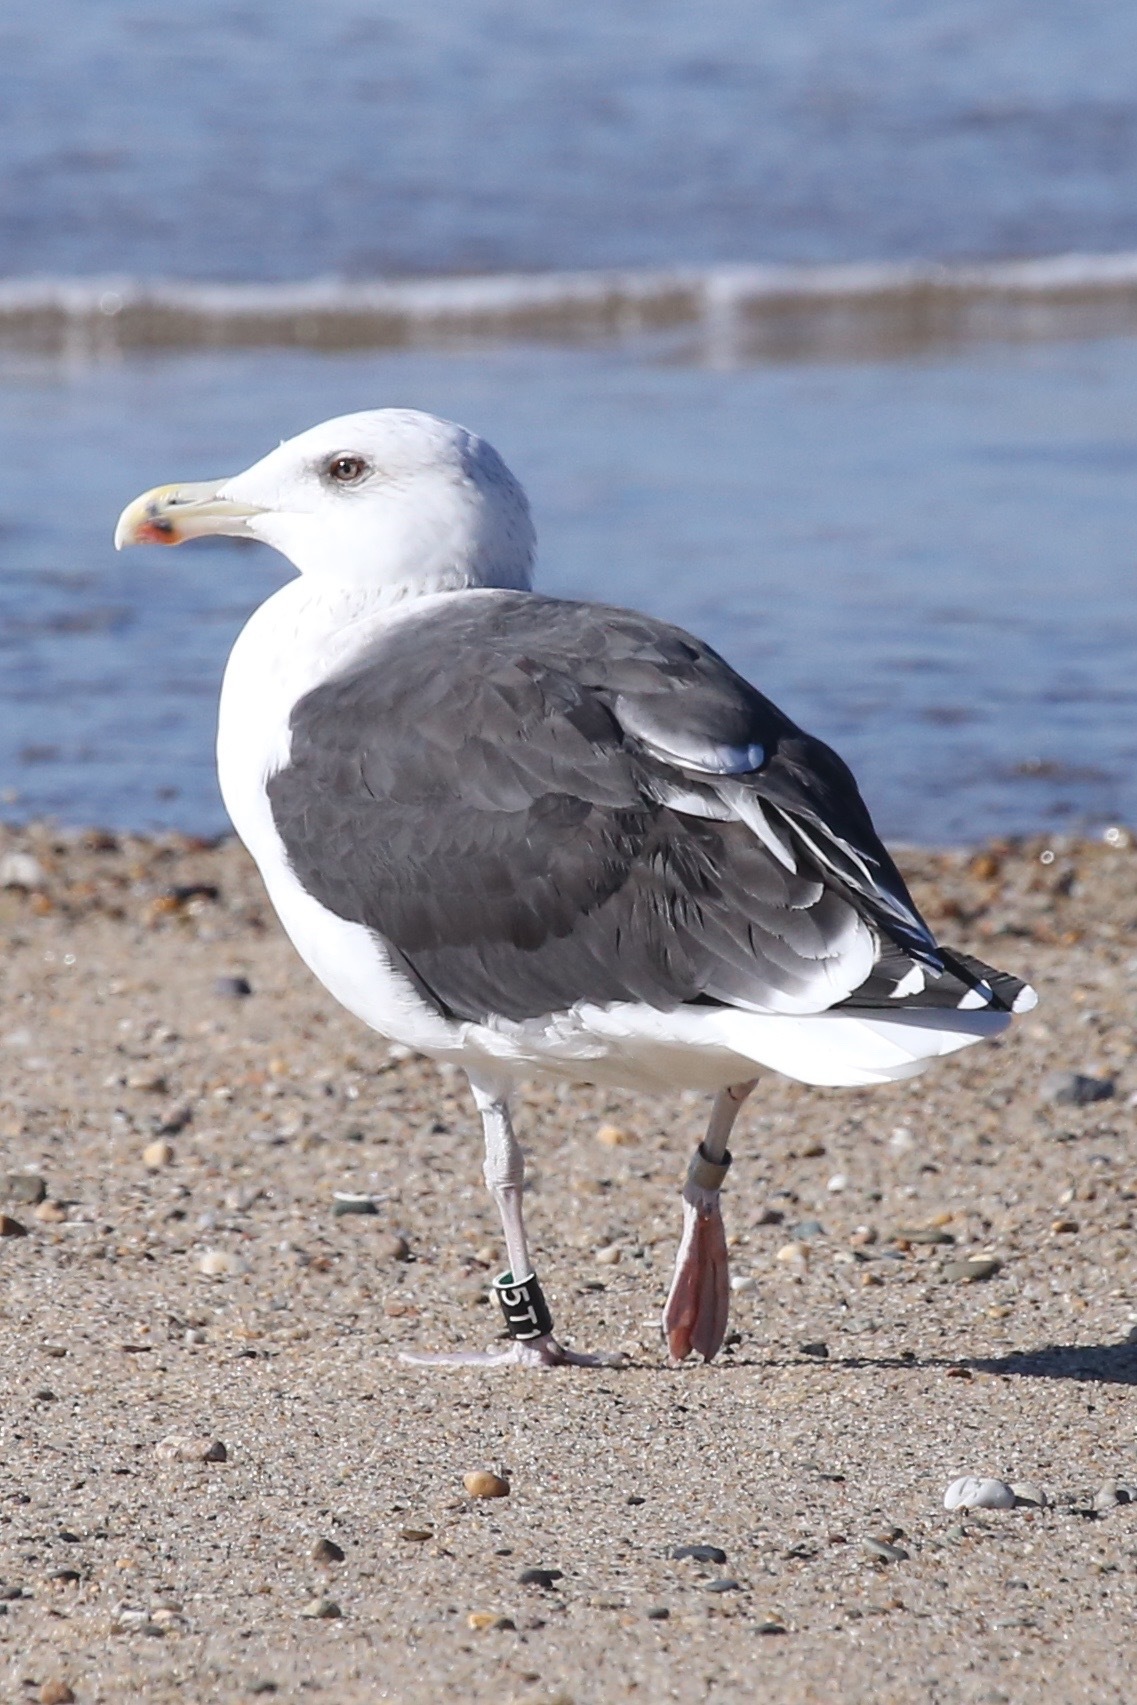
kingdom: Animalia
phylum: Chordata
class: Aves
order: Charadriiformes
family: Laridae
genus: Larus
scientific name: Larus marinus
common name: Great black-backed gull
